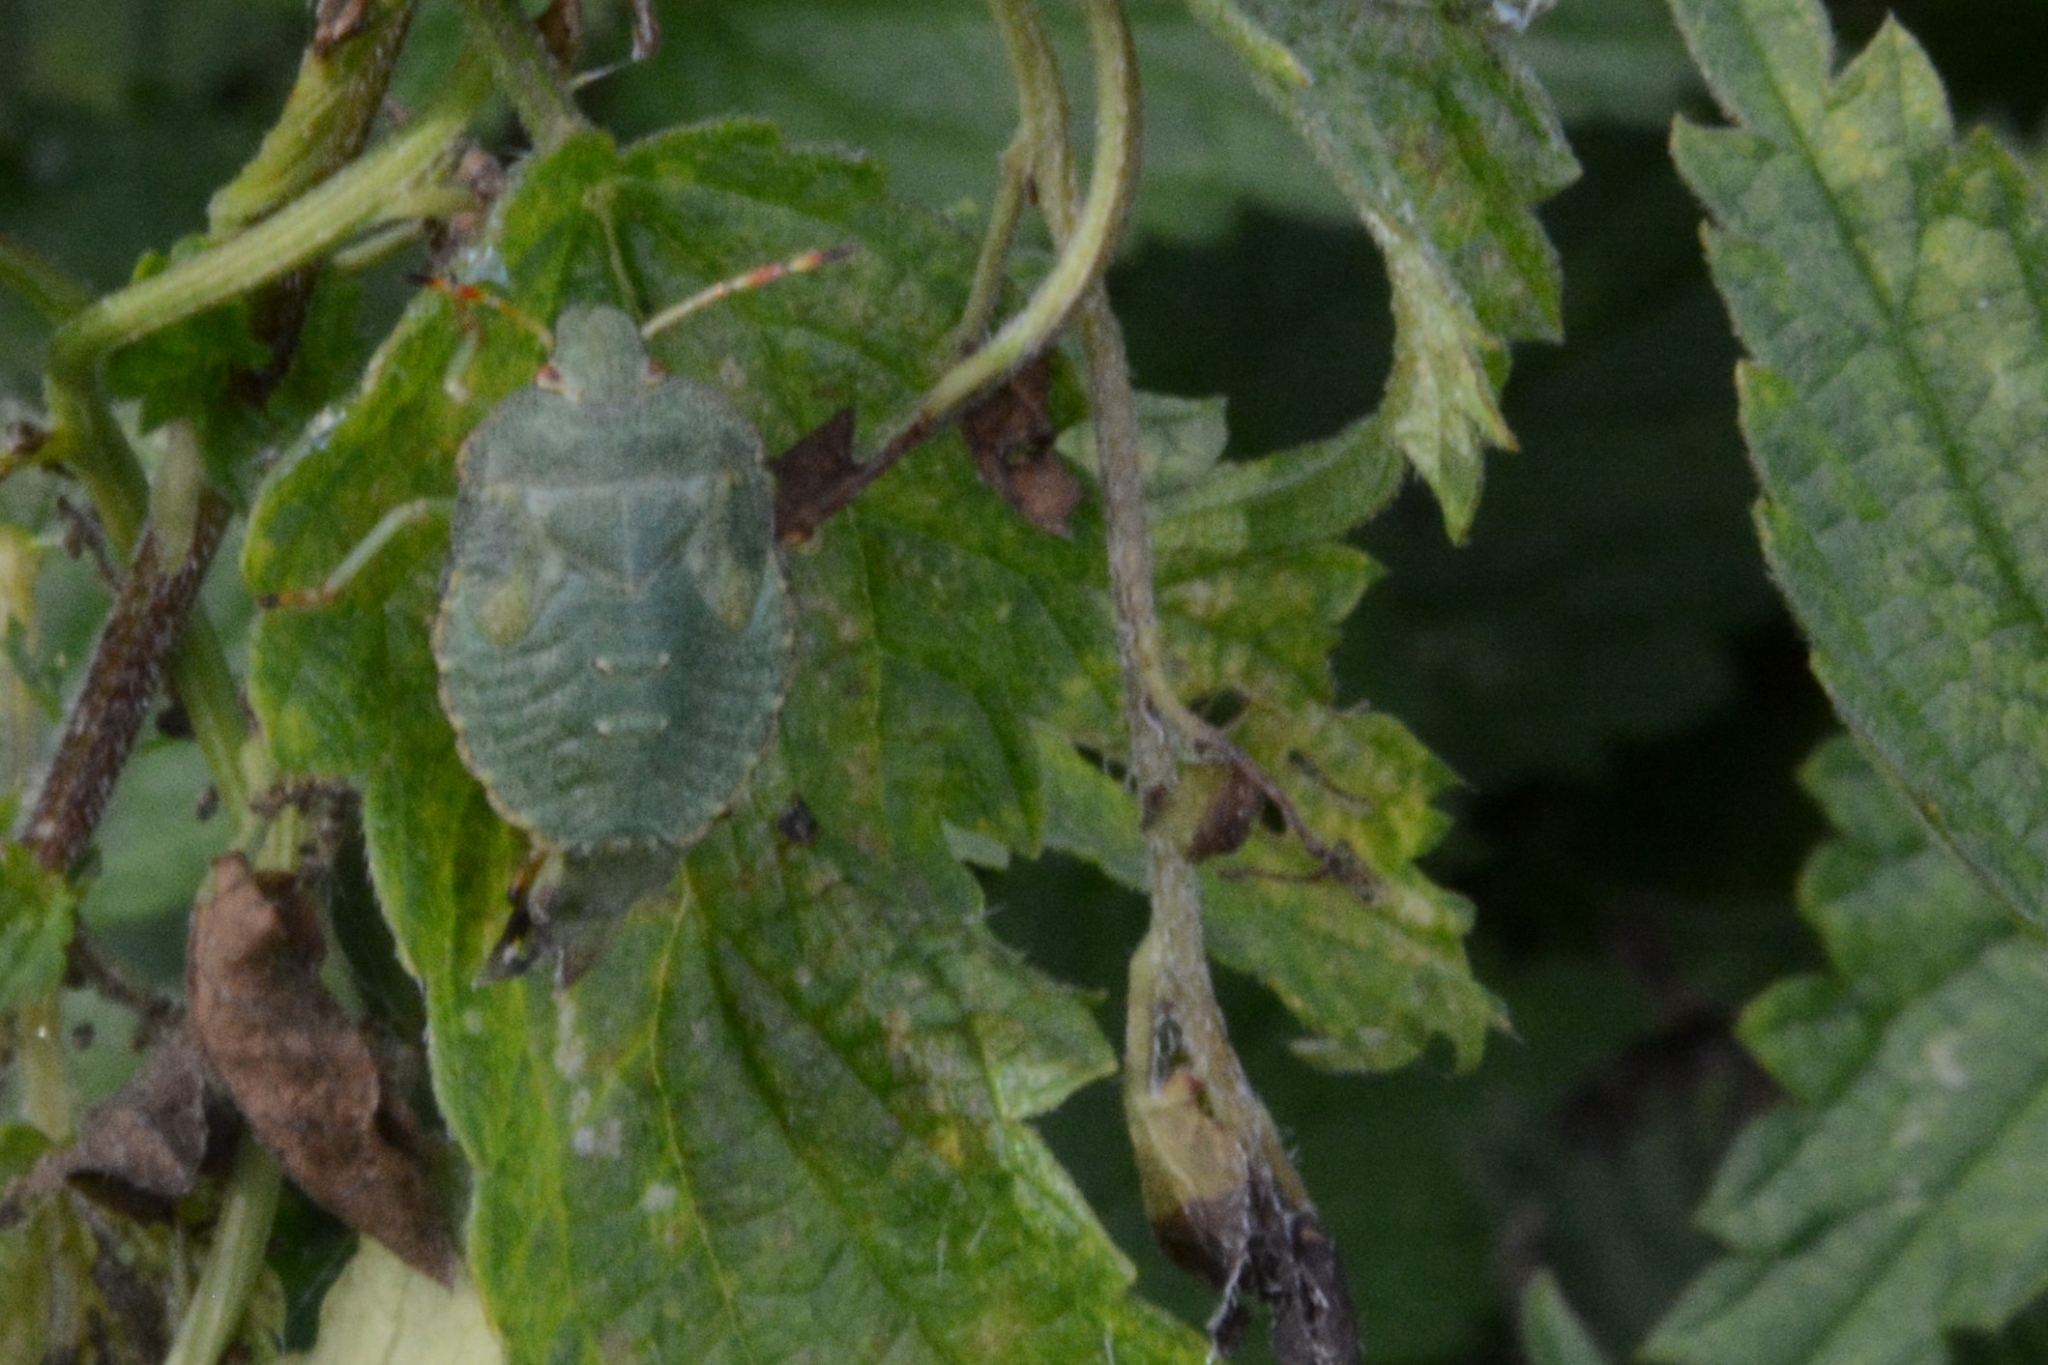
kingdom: Animalia
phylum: Arthropoda
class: Insecta
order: Hemiptera
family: Pentatomidae
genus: Palomena
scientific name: Palomena prasina
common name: Green shieldbug
